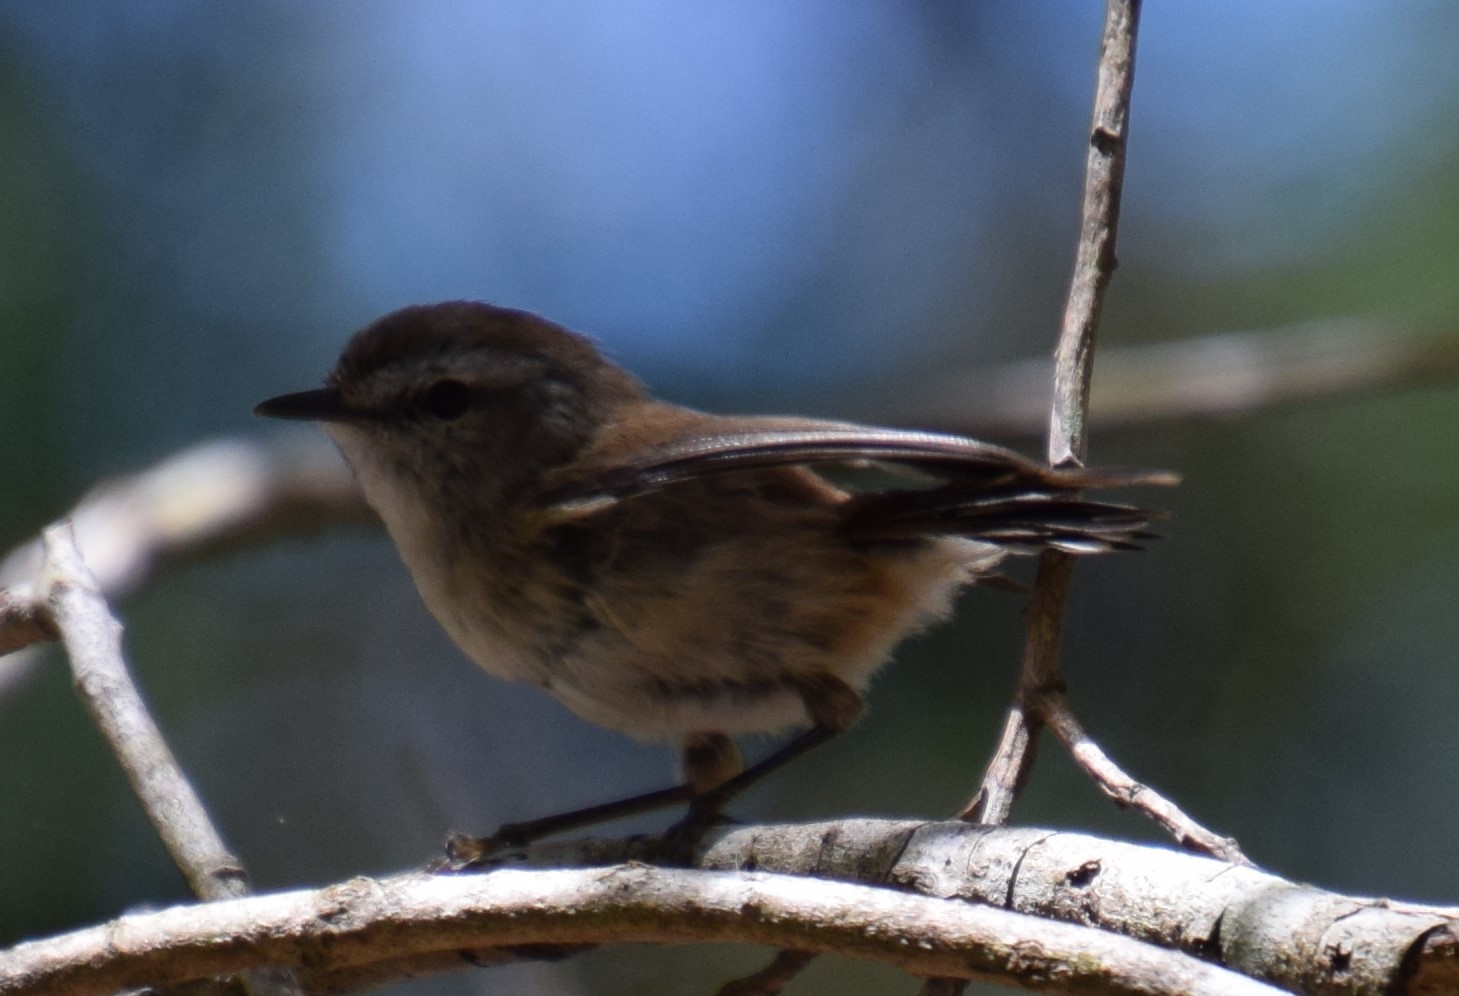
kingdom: Animalia
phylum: Chordata
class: Aves
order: Passeriformes
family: Acanthizidae
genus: Gerygone
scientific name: Gerygone mouki
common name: Brown gerygone
